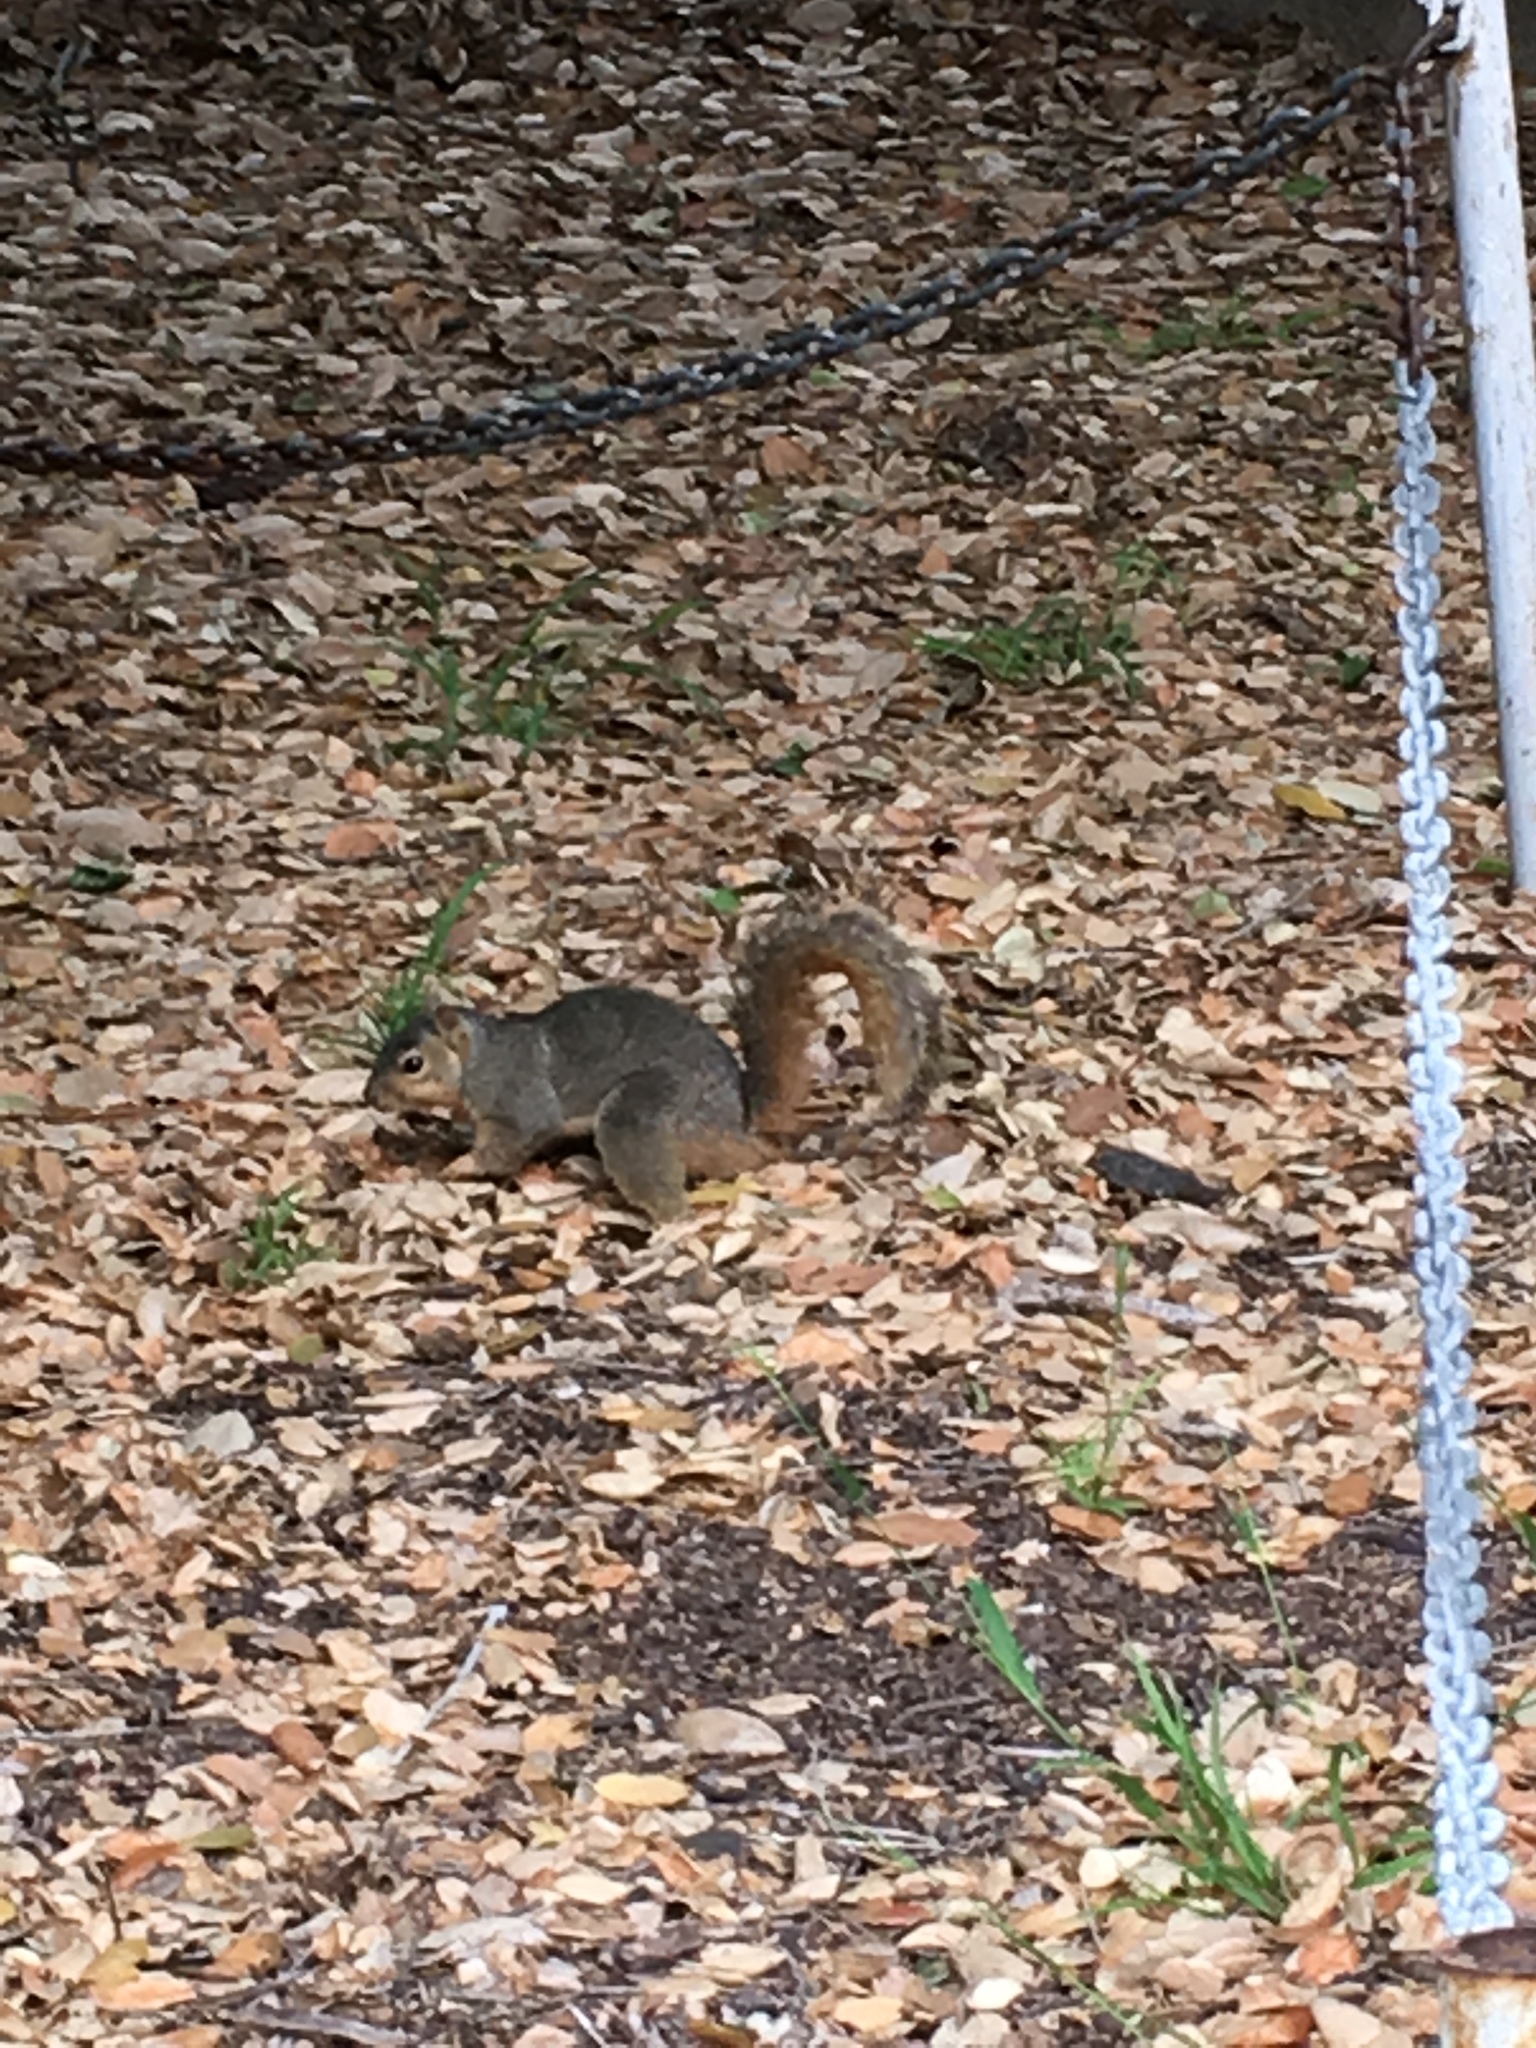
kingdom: Animalia
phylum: Chordata
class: Mammalia
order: Rodentia
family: Sciuridae
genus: Sciurus
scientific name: Sciurus niger
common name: Fox squirrel
